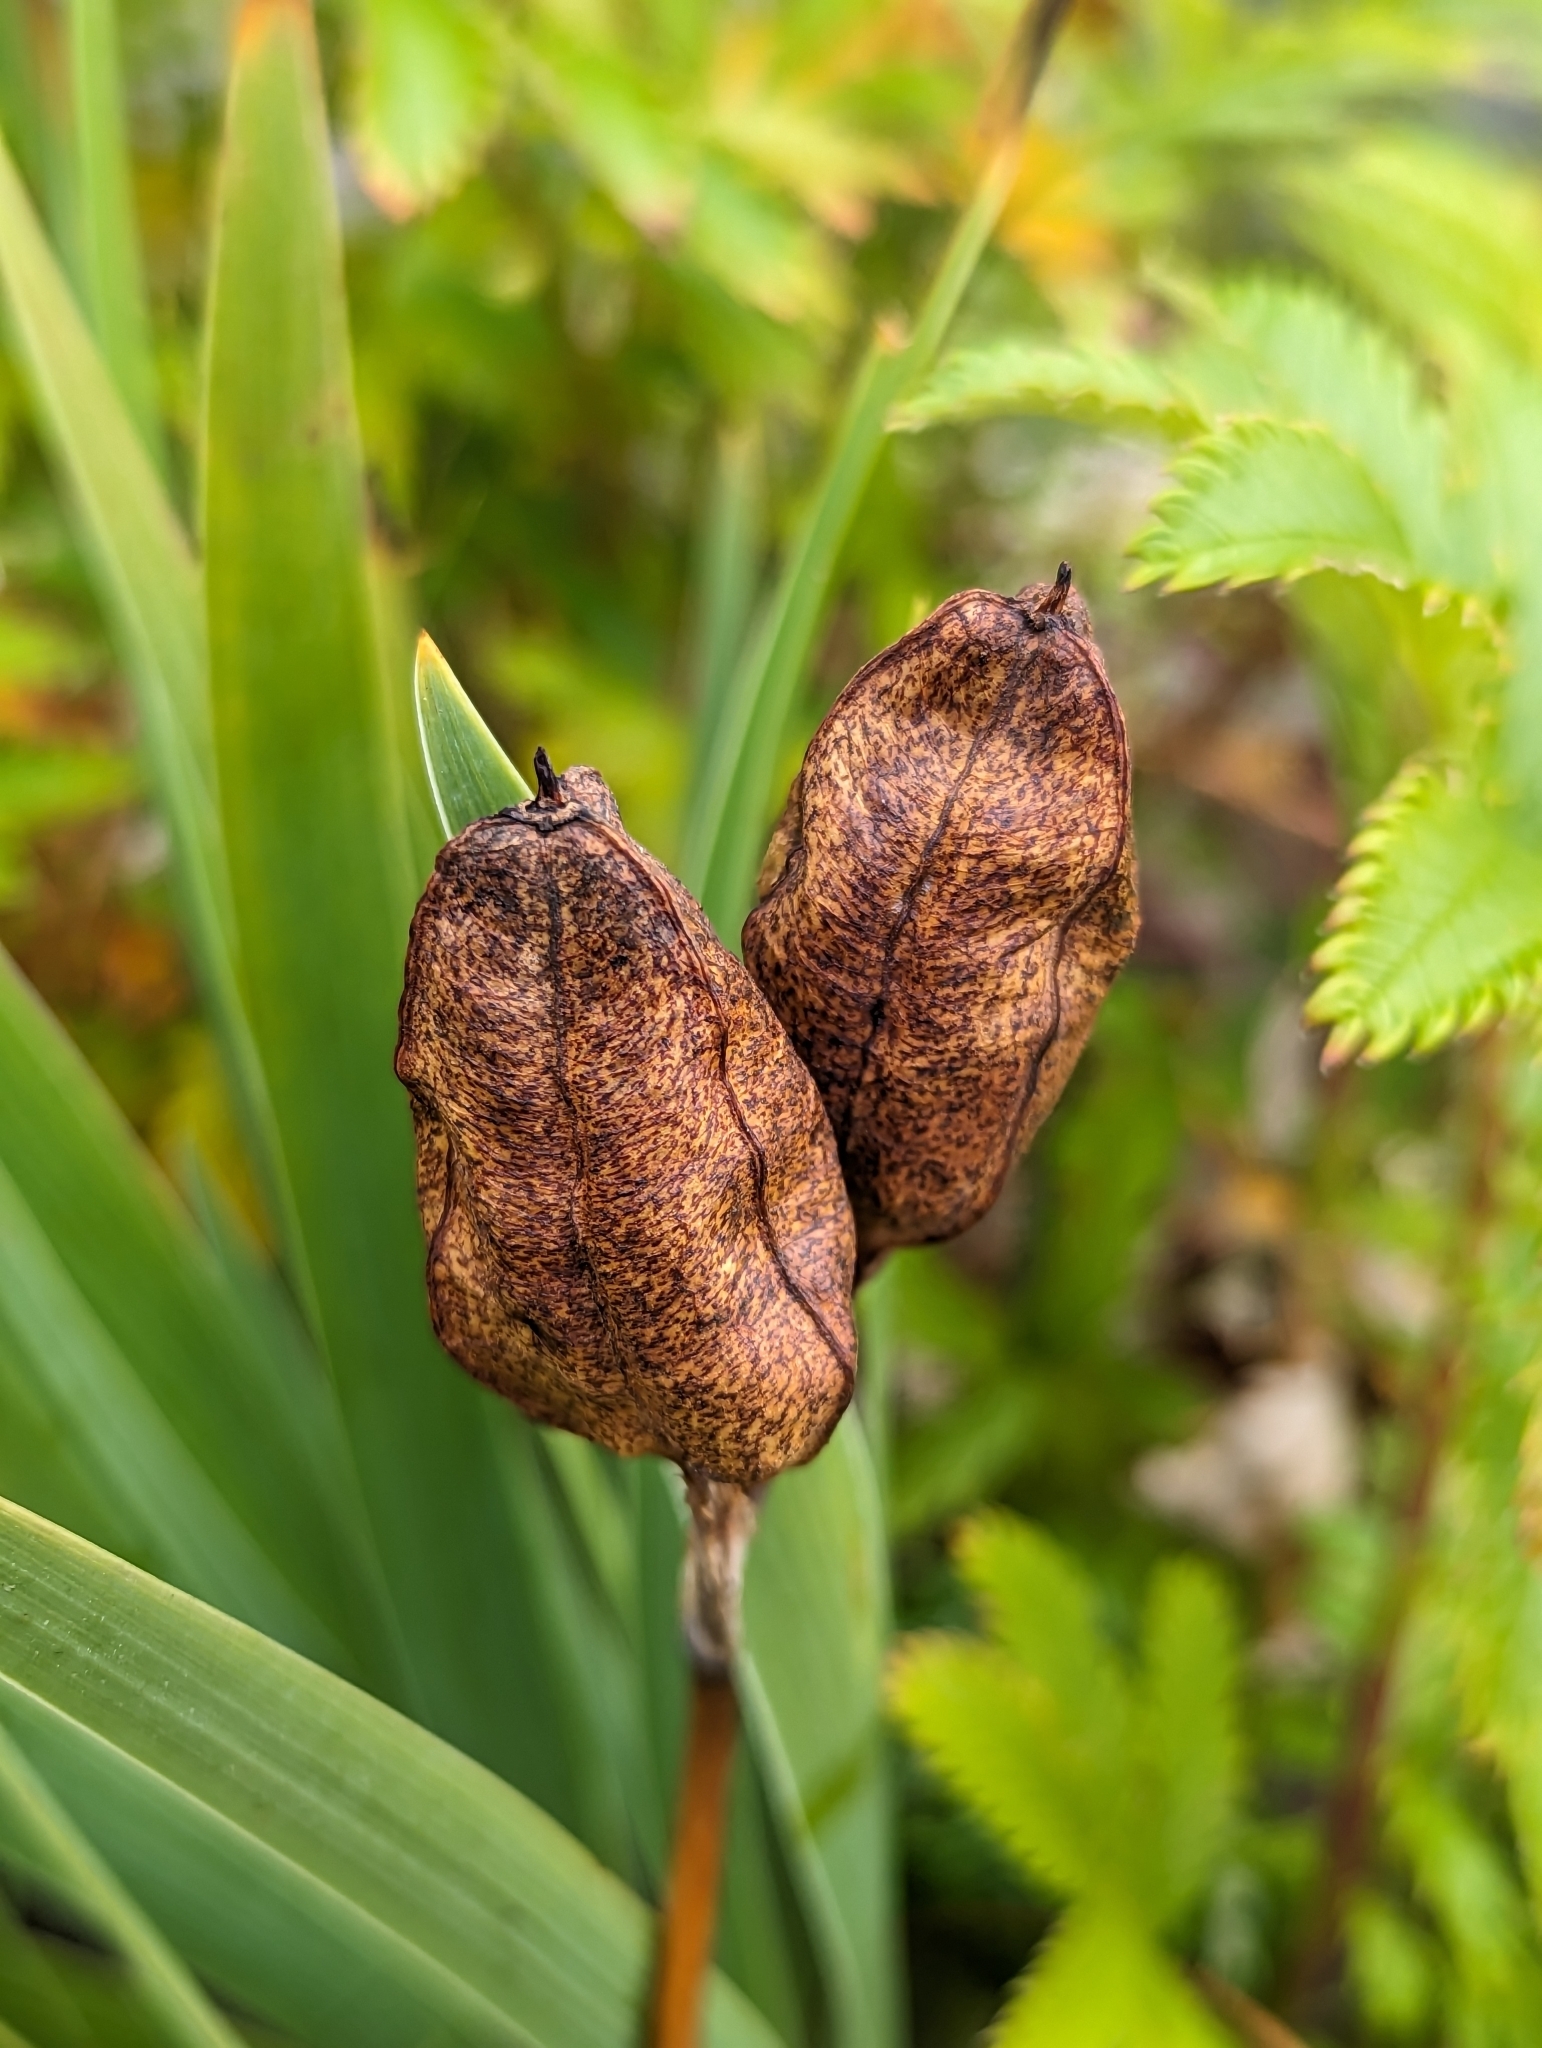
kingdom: Plantae
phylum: Tracheophyta
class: Liliopsida
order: Asparagales
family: Iridaceae
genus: Iris
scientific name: Iris hookeri
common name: Canada beach-head iris
